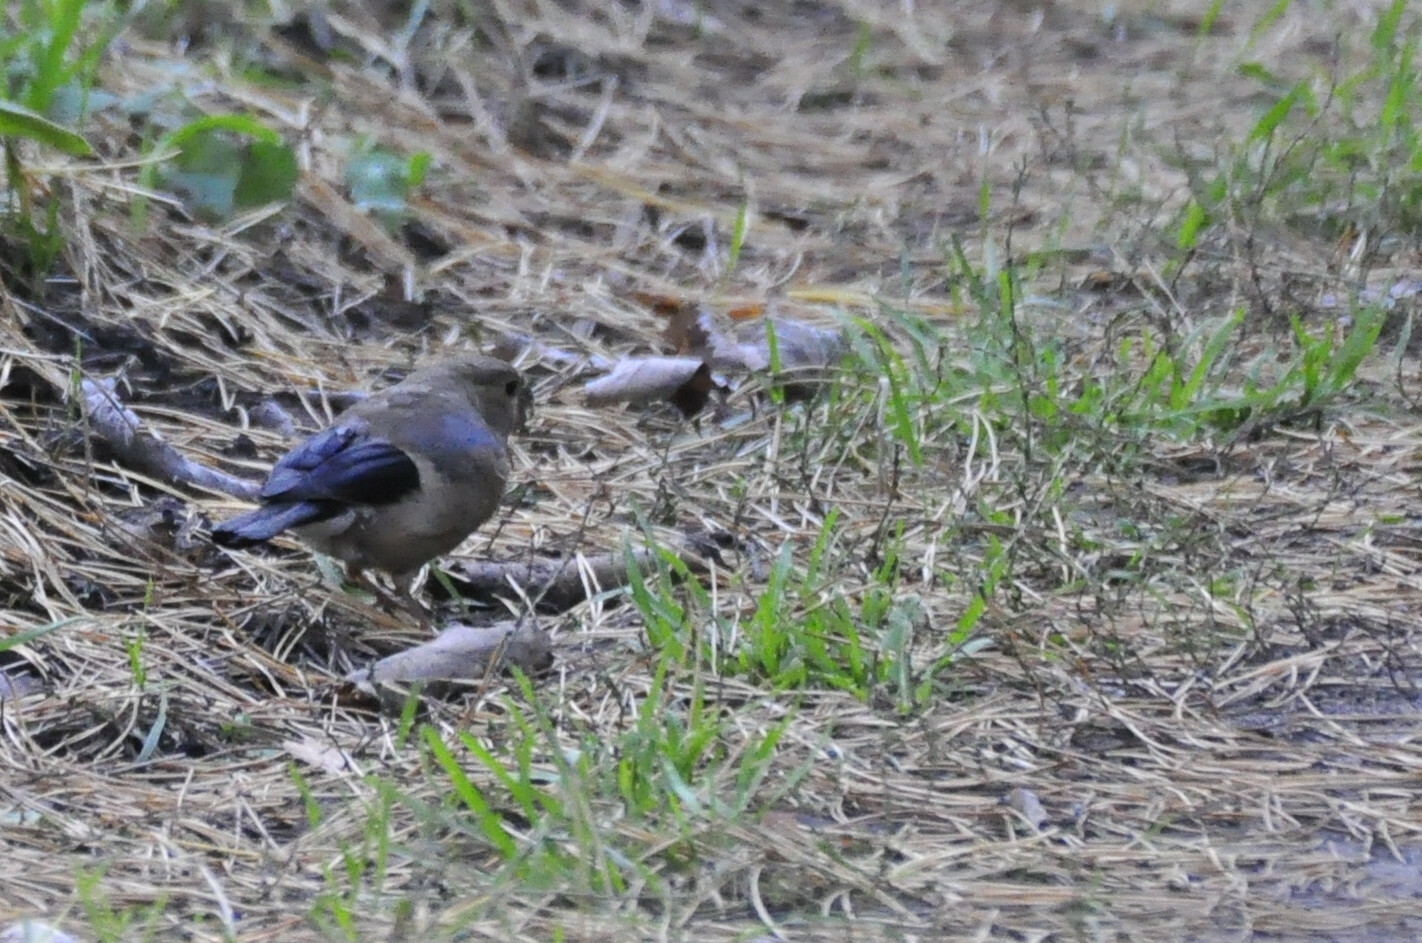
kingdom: Animalia
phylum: Chordata
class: Aves
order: Passeriformes
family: Fringillidae
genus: Pyrrhula
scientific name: Pyrrhula pyrrhula
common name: Eurasian bullfinch
